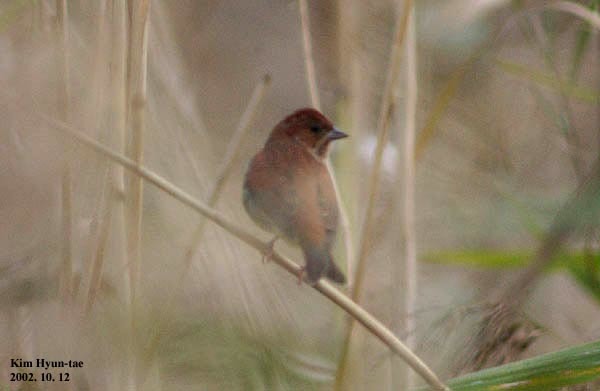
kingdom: Animalia
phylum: Chordata
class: Aves
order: Passeriformes
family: Emberizidae
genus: Emberiza
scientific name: Emberiza rutila
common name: Chestnut bunting
